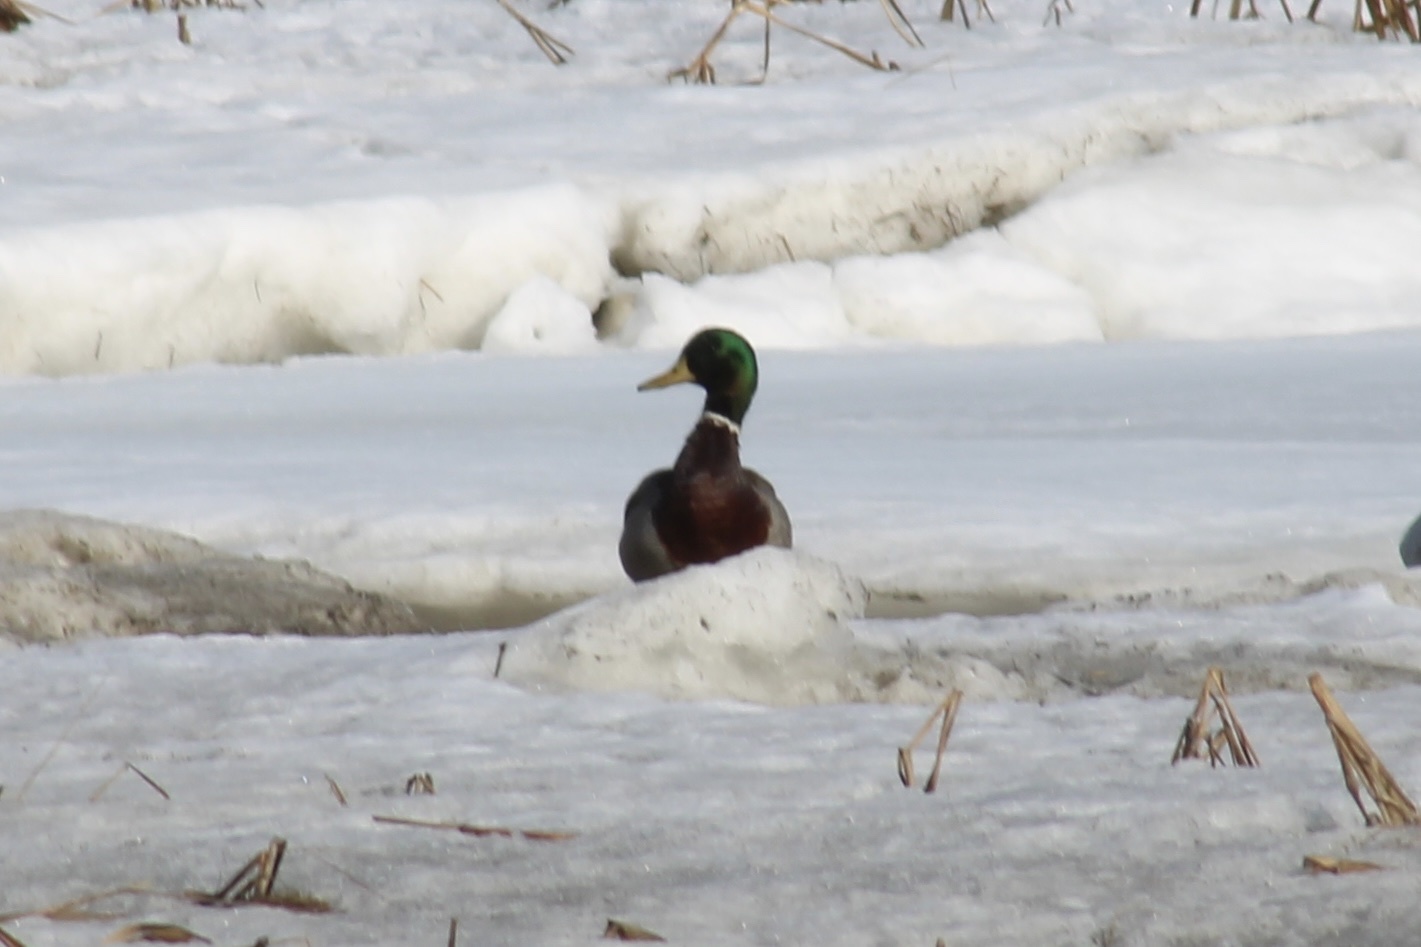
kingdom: Animalia
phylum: Chordata
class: Aves
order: Anseriformes
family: Anatidae
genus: Anas
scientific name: Anas platyrhynchos
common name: Mallard
